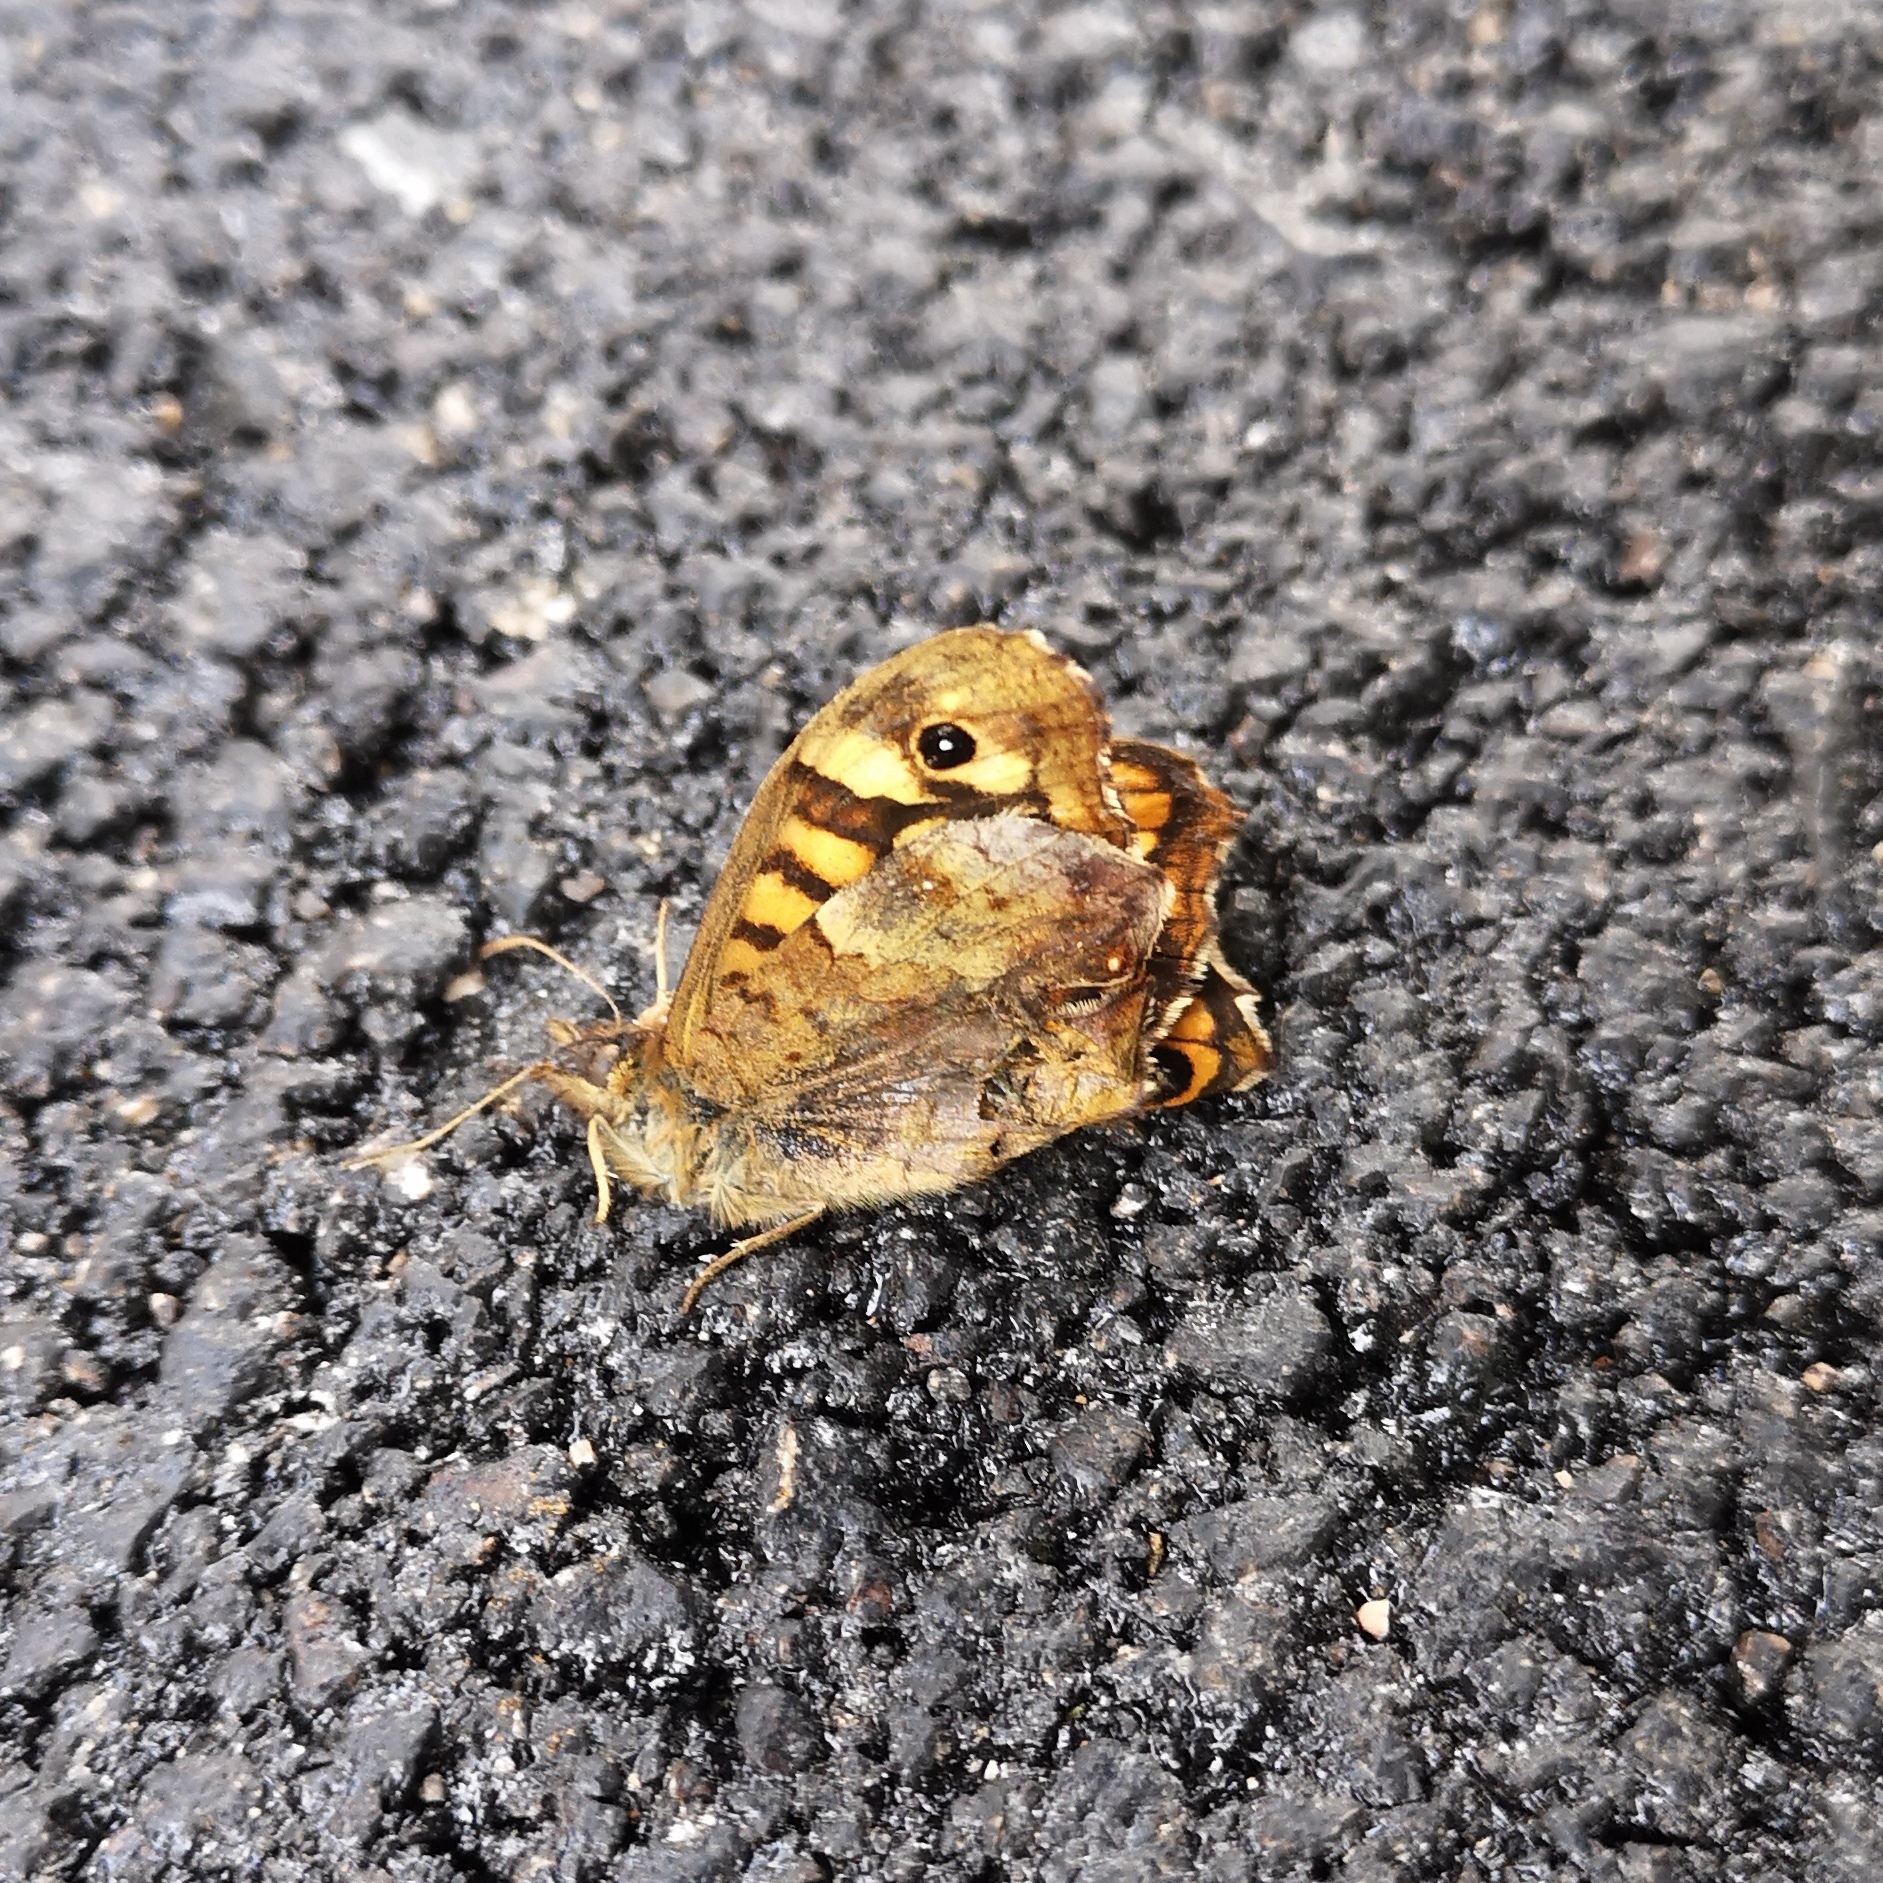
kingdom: Animalia
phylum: Arthropoda
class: Insecta
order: Lepidoptera
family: Nymphalidae
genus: Pararge
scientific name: Pararge aegeria
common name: Speckled wood
